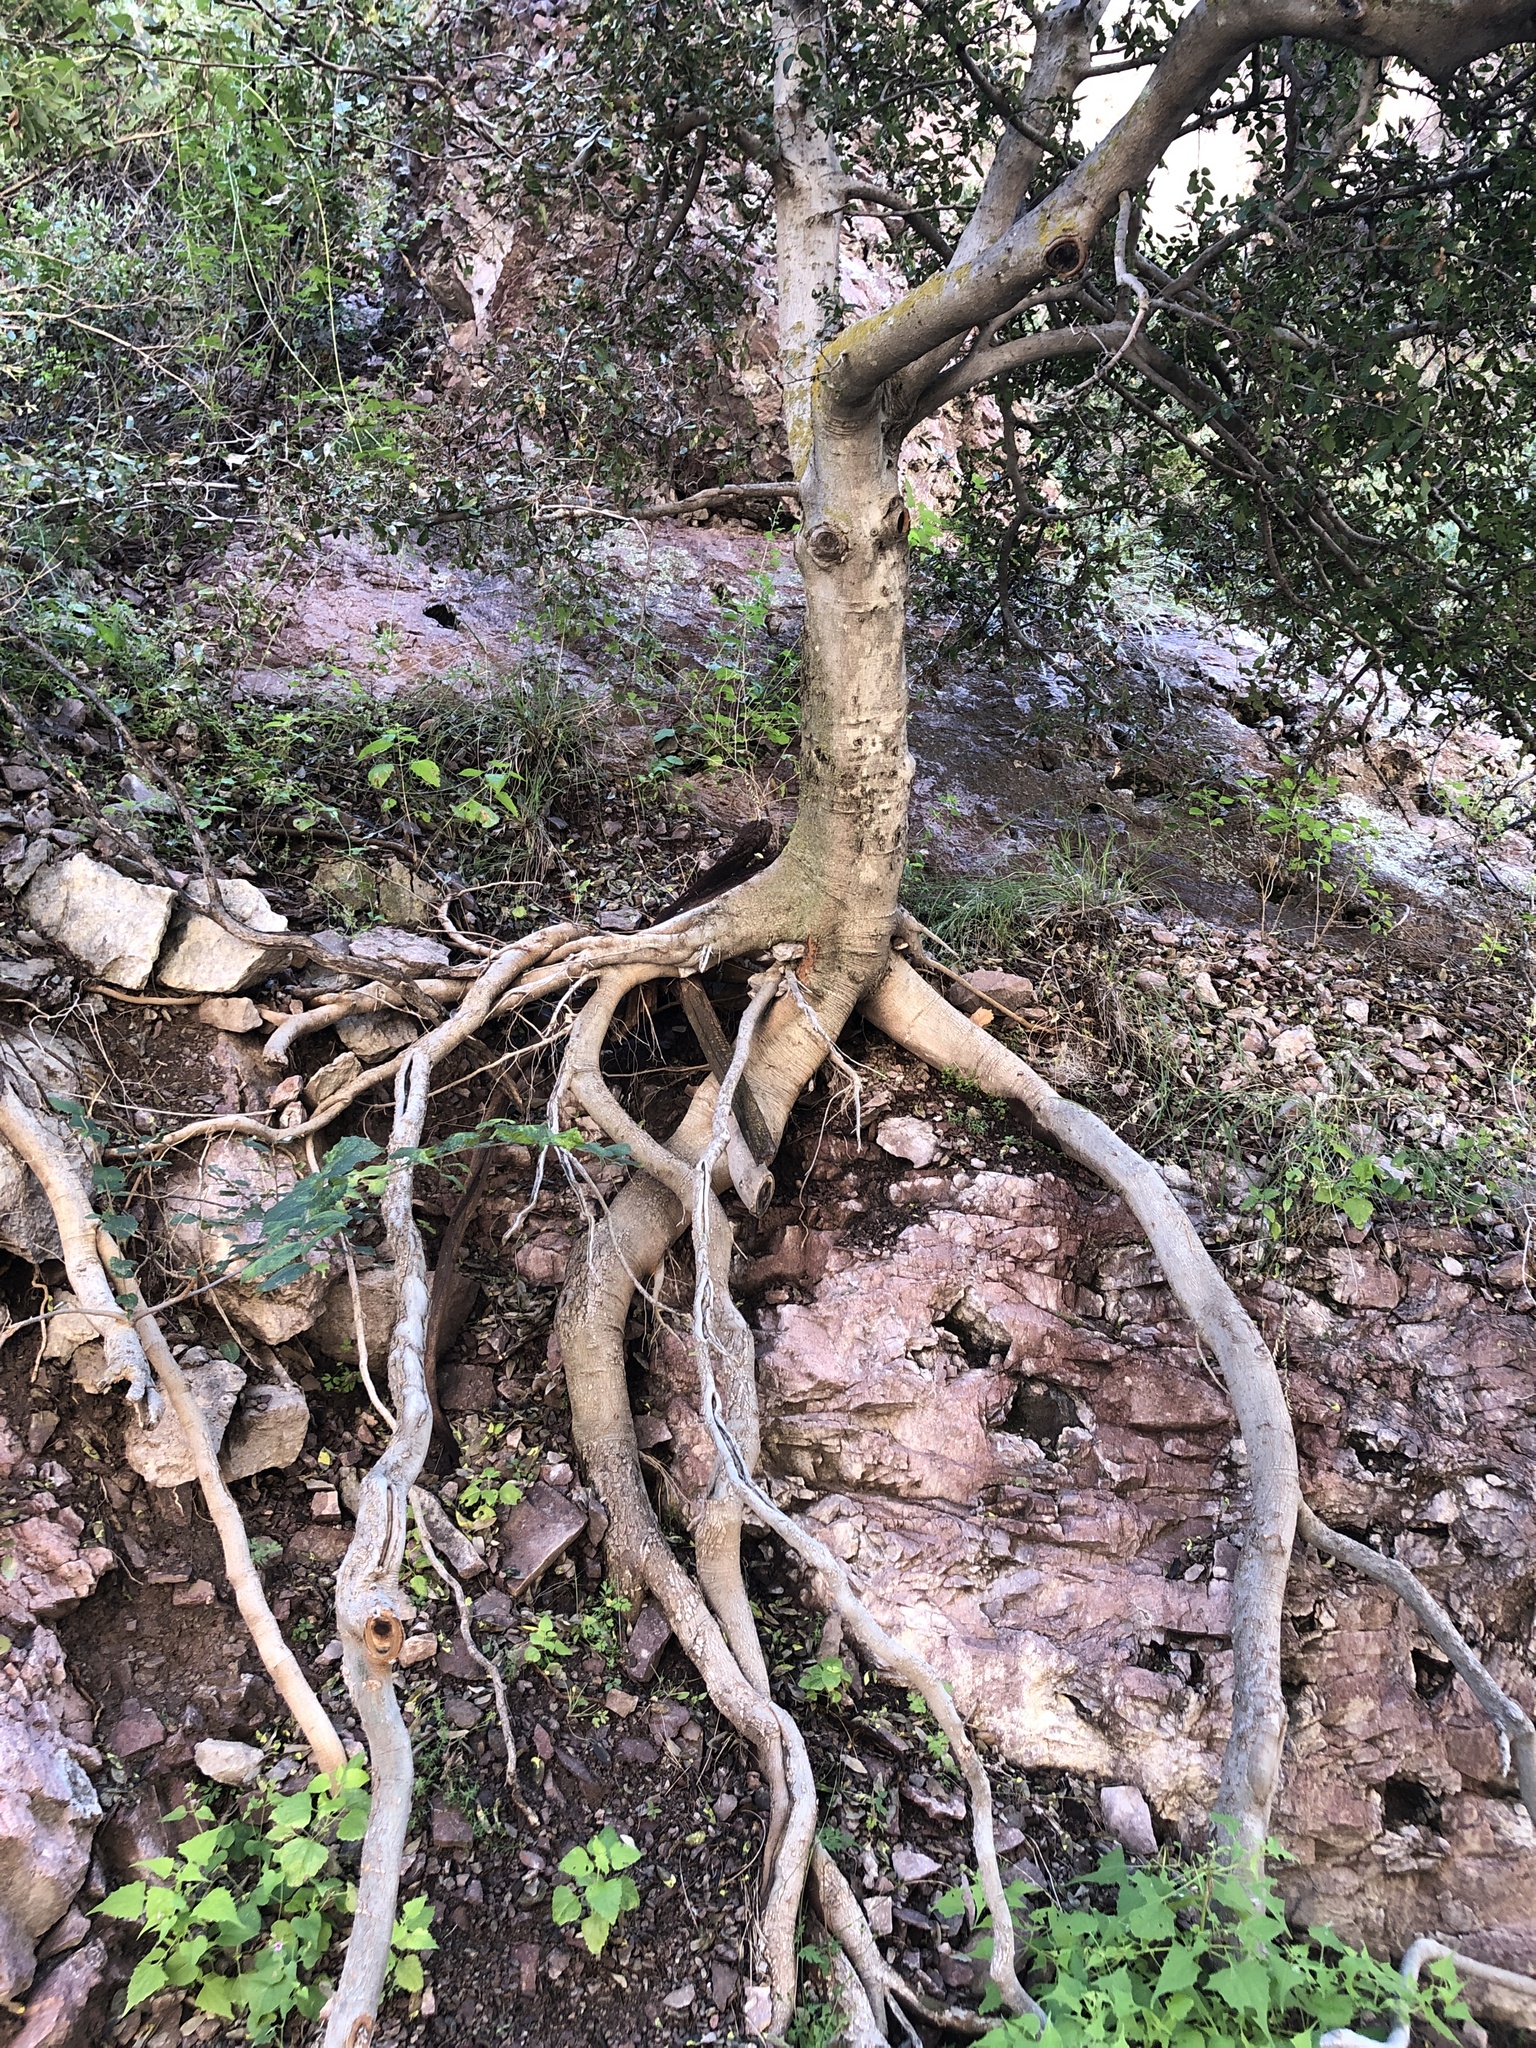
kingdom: Plantae
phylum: Tracheophyta
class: Magnoliopsida
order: Rosales
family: Cannabaceae
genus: Celtis
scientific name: Celtis reticulata
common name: Netleaf hackberry
